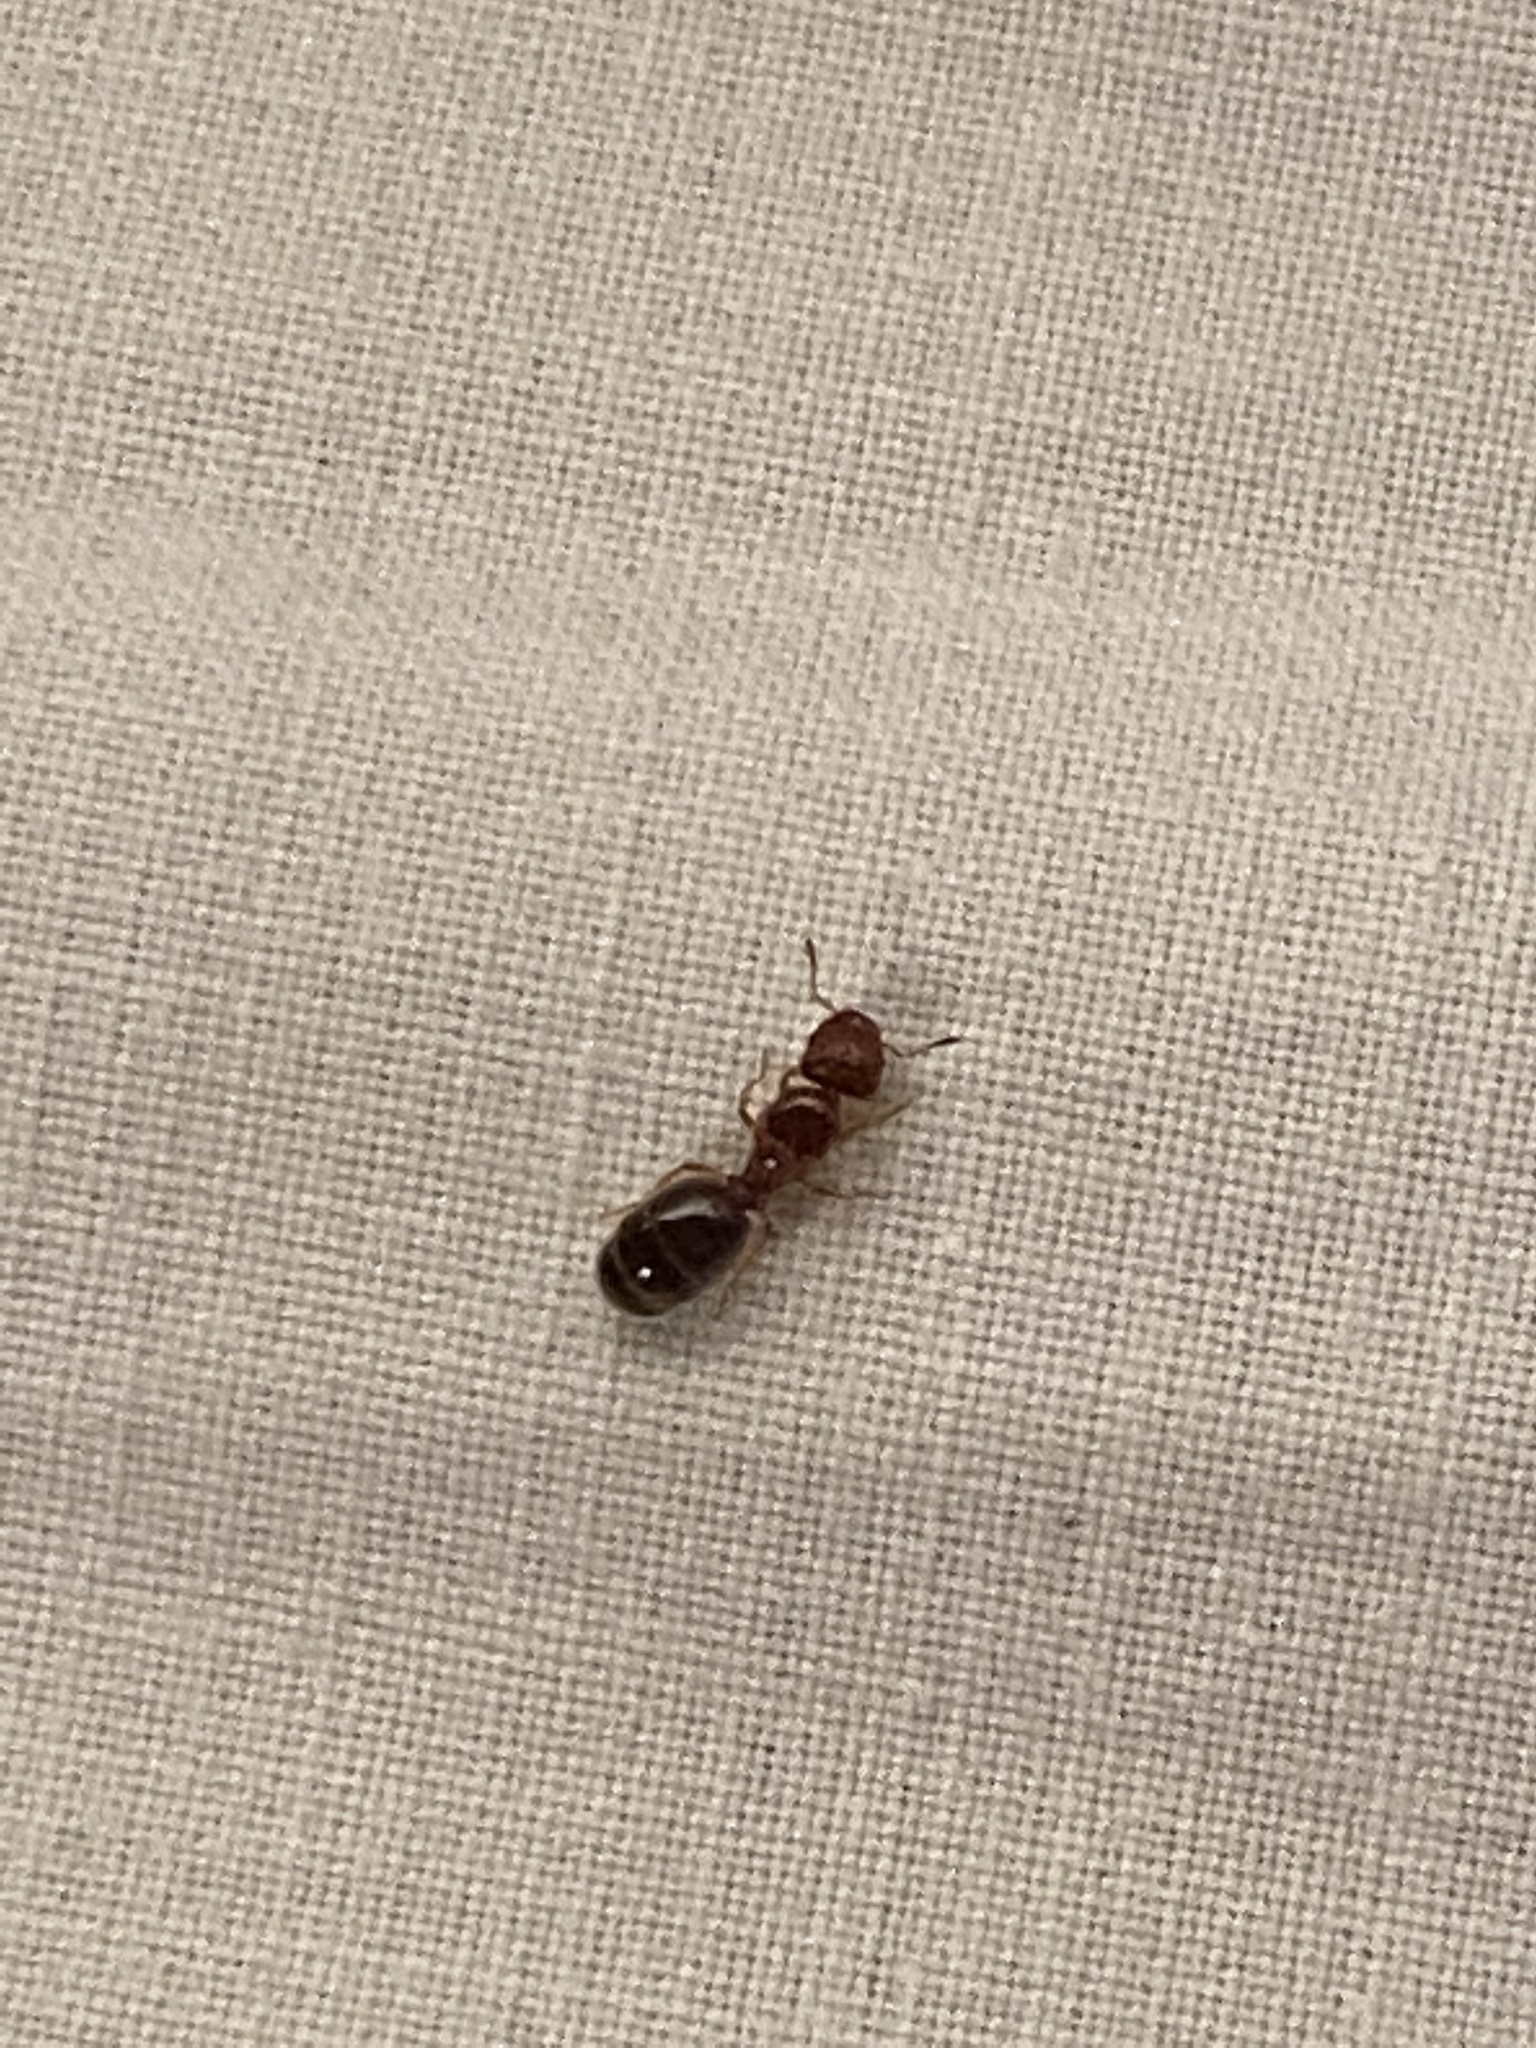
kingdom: Animalia
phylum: Arthropoda
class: Insecta
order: Hymenoptera
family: Formicidae
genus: Pheidole
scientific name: Pheidole bicarinata
